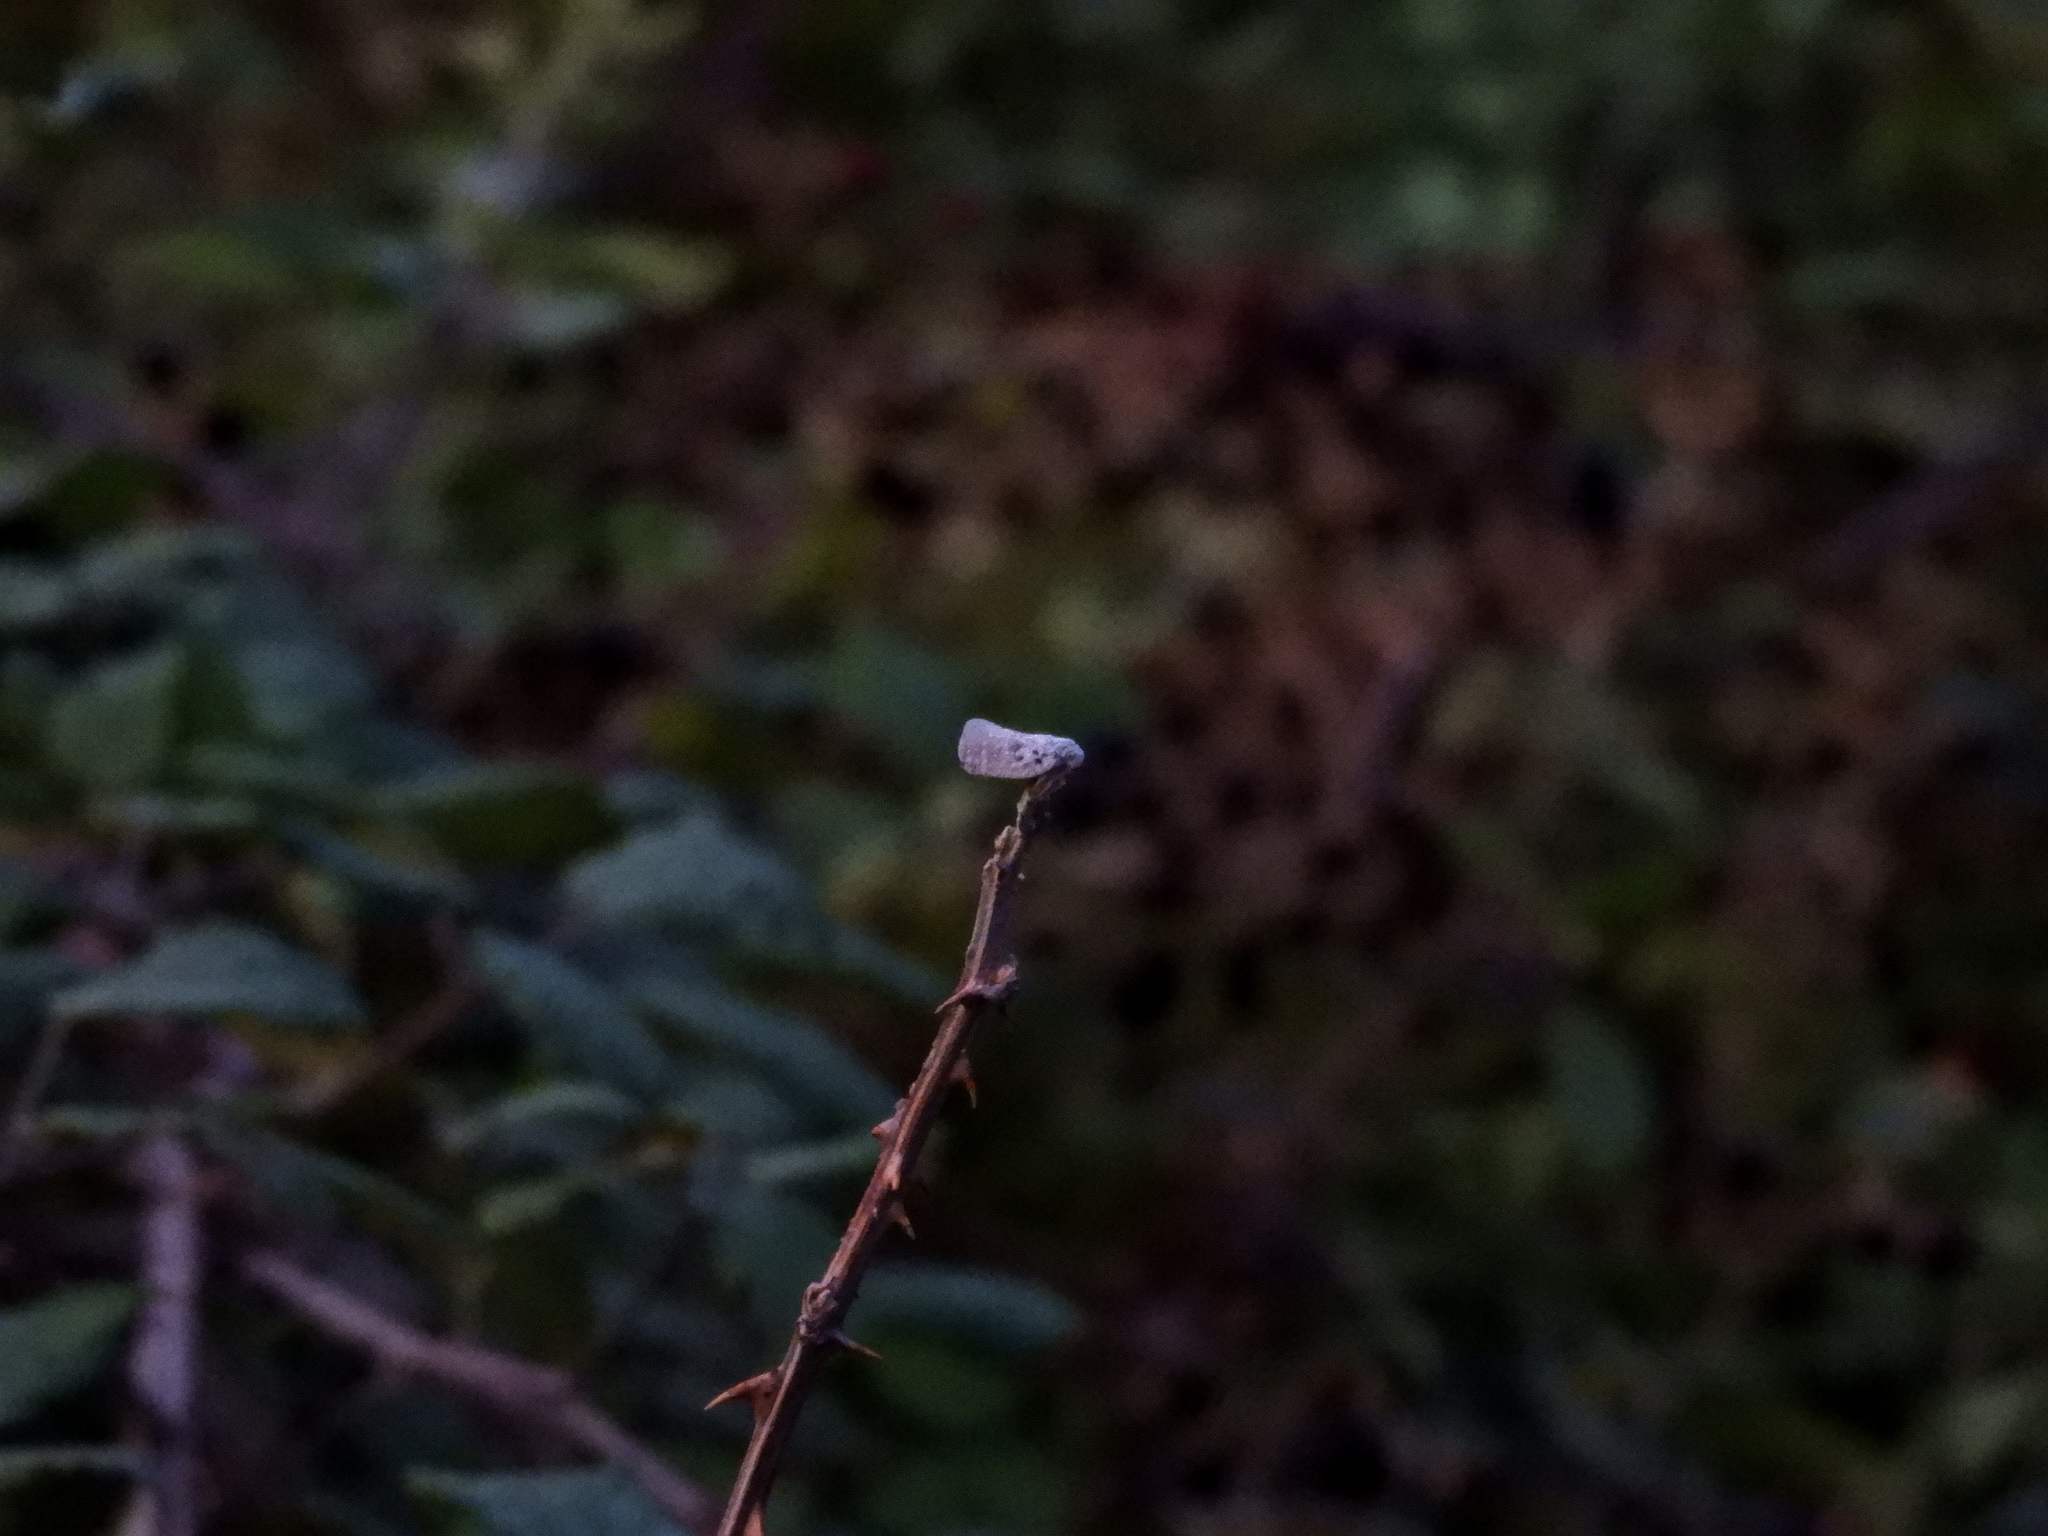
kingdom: Animalia
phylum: Arthropoda
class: Insecta
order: Hemiptera
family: Flatidae
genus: Metcalfa
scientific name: Metcalfa pruinosa
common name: Citrus flatid planthopper
